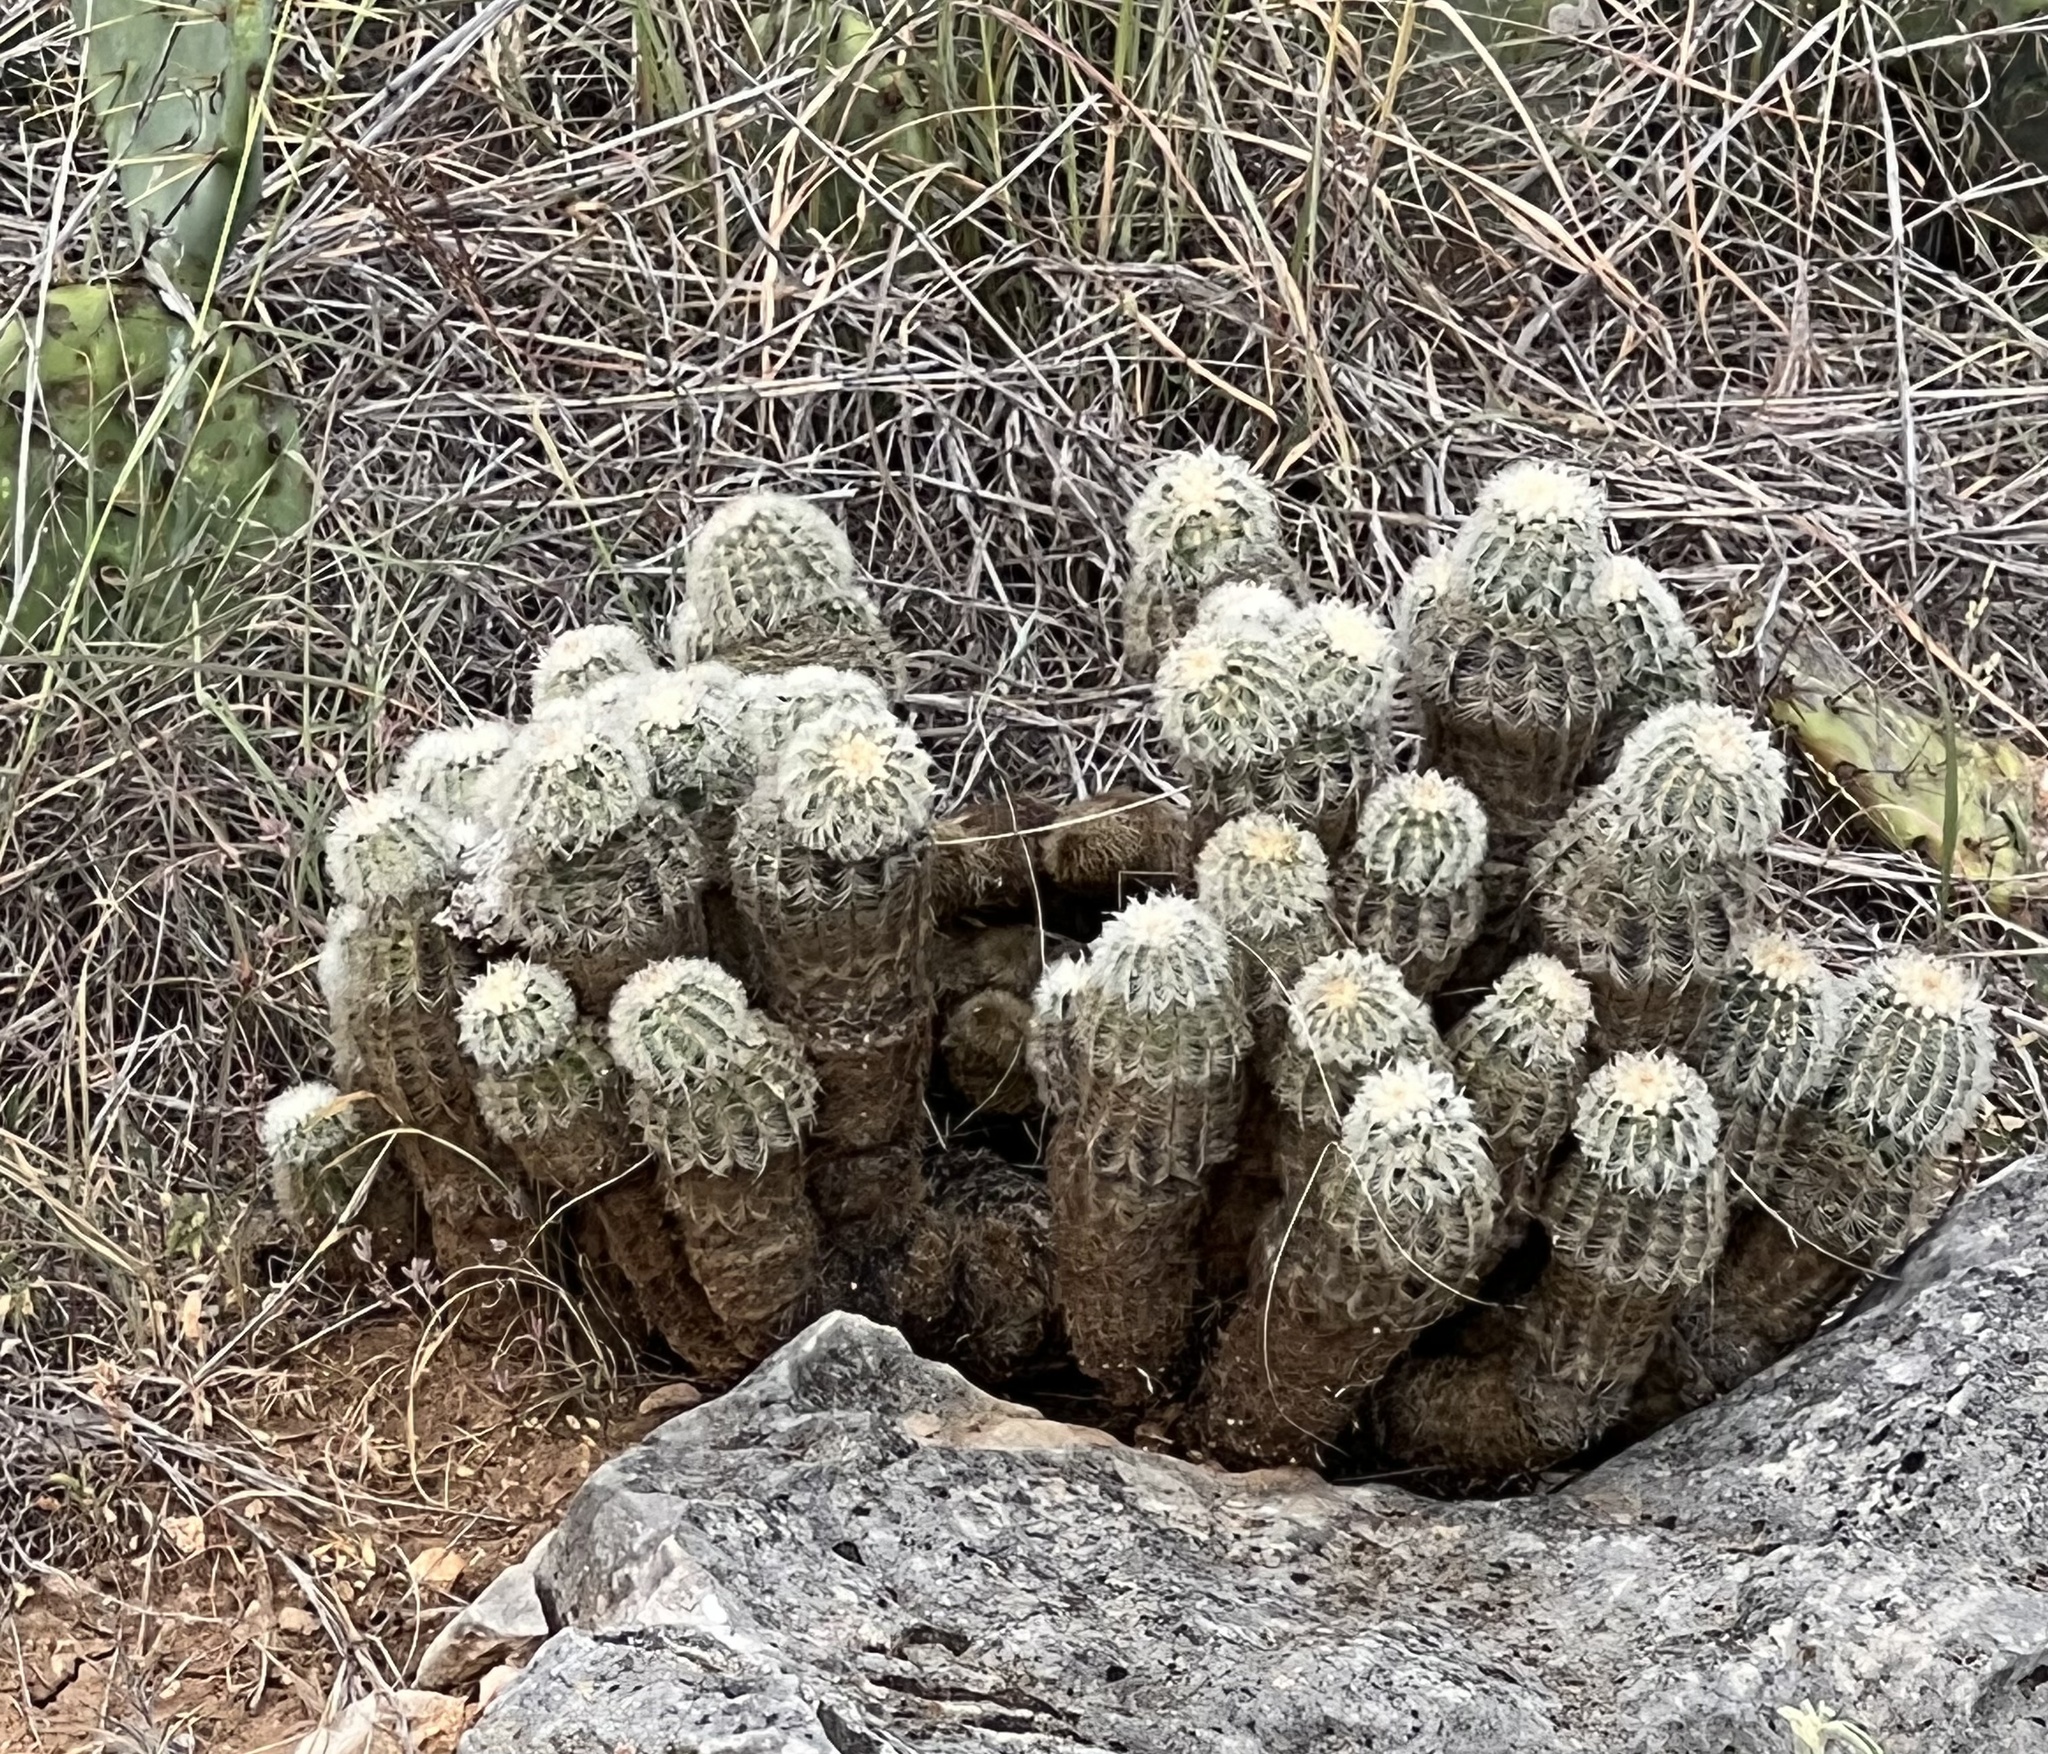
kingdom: Plantae
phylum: Tracheophyta
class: Magnoliopsida
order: Caryophyllales
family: Cactaceae
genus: Echinocereus
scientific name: Echinocereus reichenbachii
